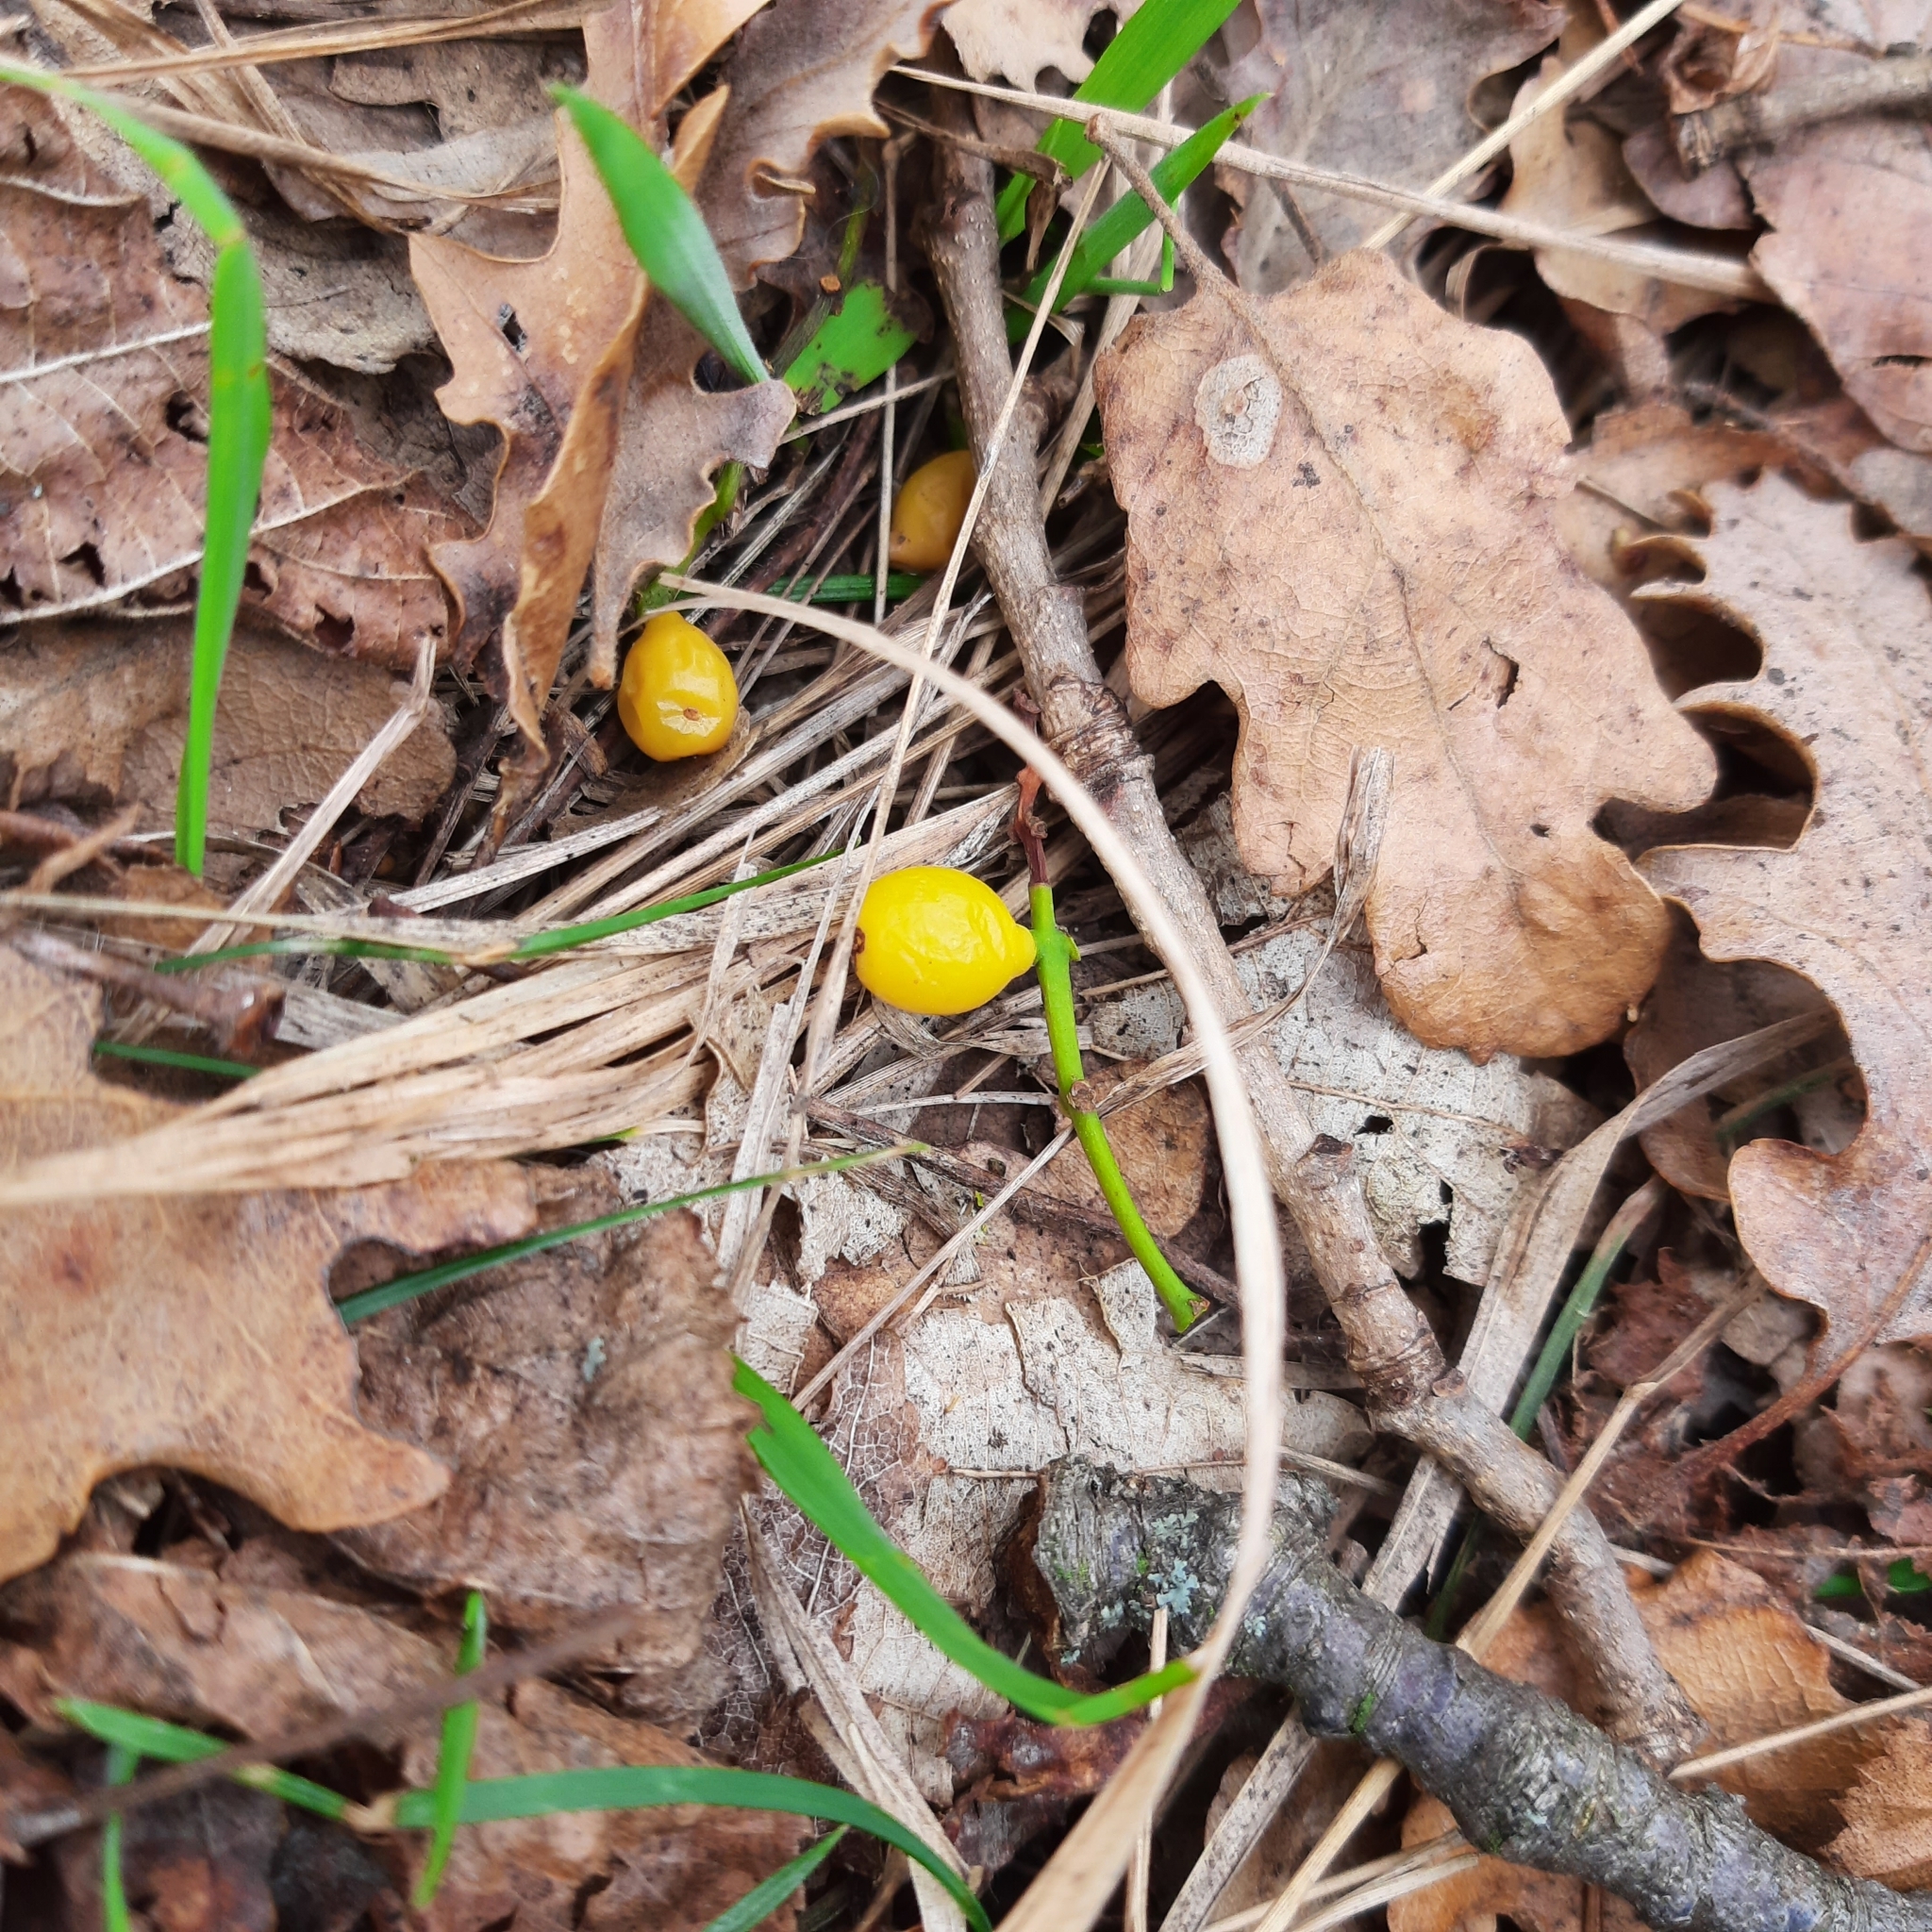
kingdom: Plantae
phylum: Tracheophyta
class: Magnoliopsida
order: Santalales
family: Loranthaceae
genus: Loranthus
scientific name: Loranthus europaeus
